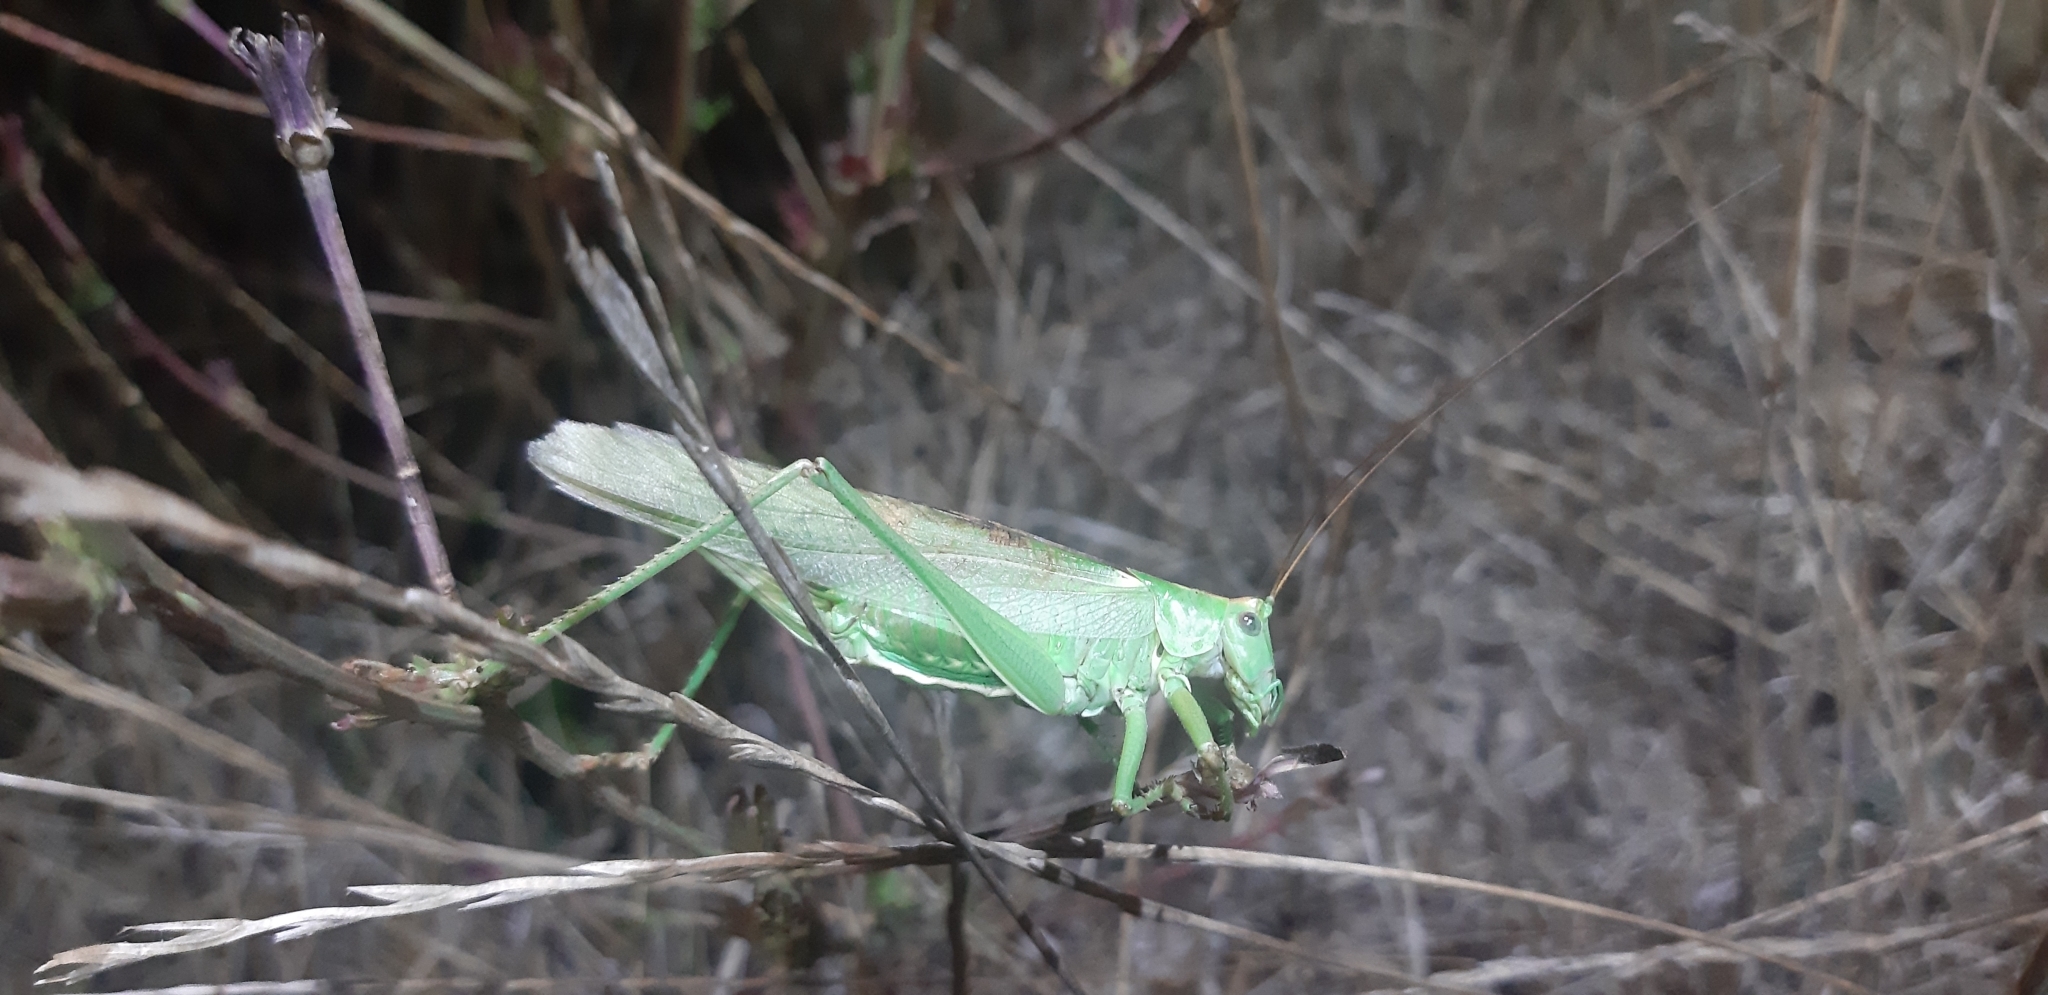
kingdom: Animalia
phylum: Arthropoda
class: Insecta
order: Orthoptera
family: Tettigoniidae
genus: Tettigonia
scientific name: Tettigonia viridissima
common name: Great green bush-cricket
